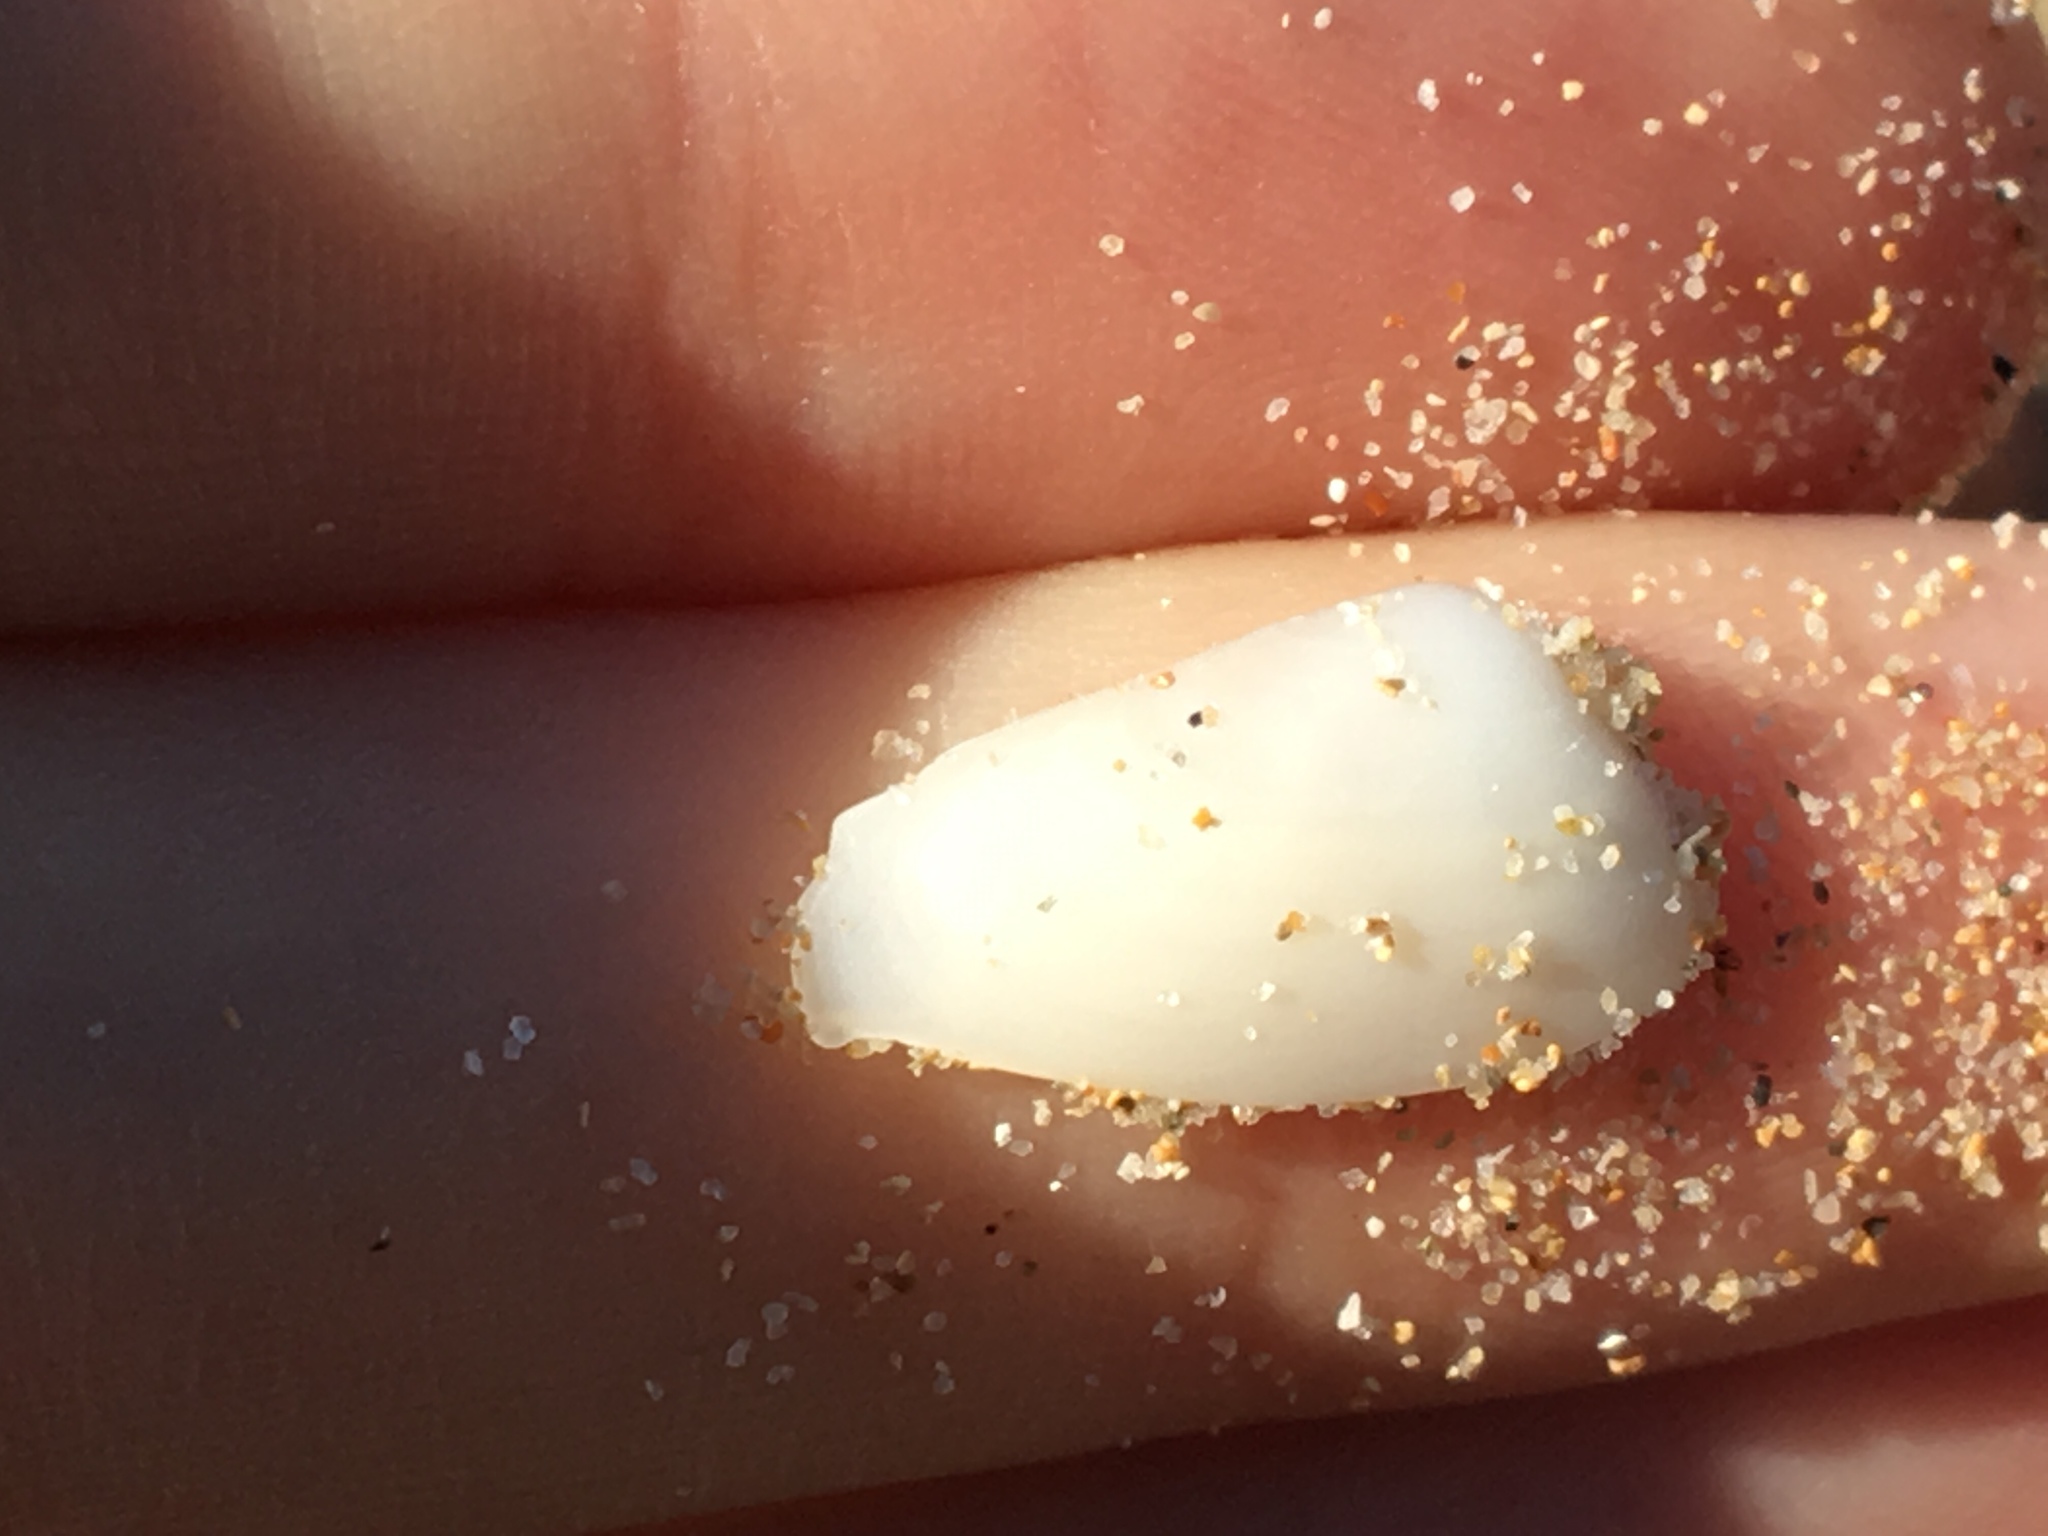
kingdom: Animalia
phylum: Mollusca
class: Bivalvia
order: Venerida
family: Mesodesmatidae
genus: Paphies
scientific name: Paphies angusta
